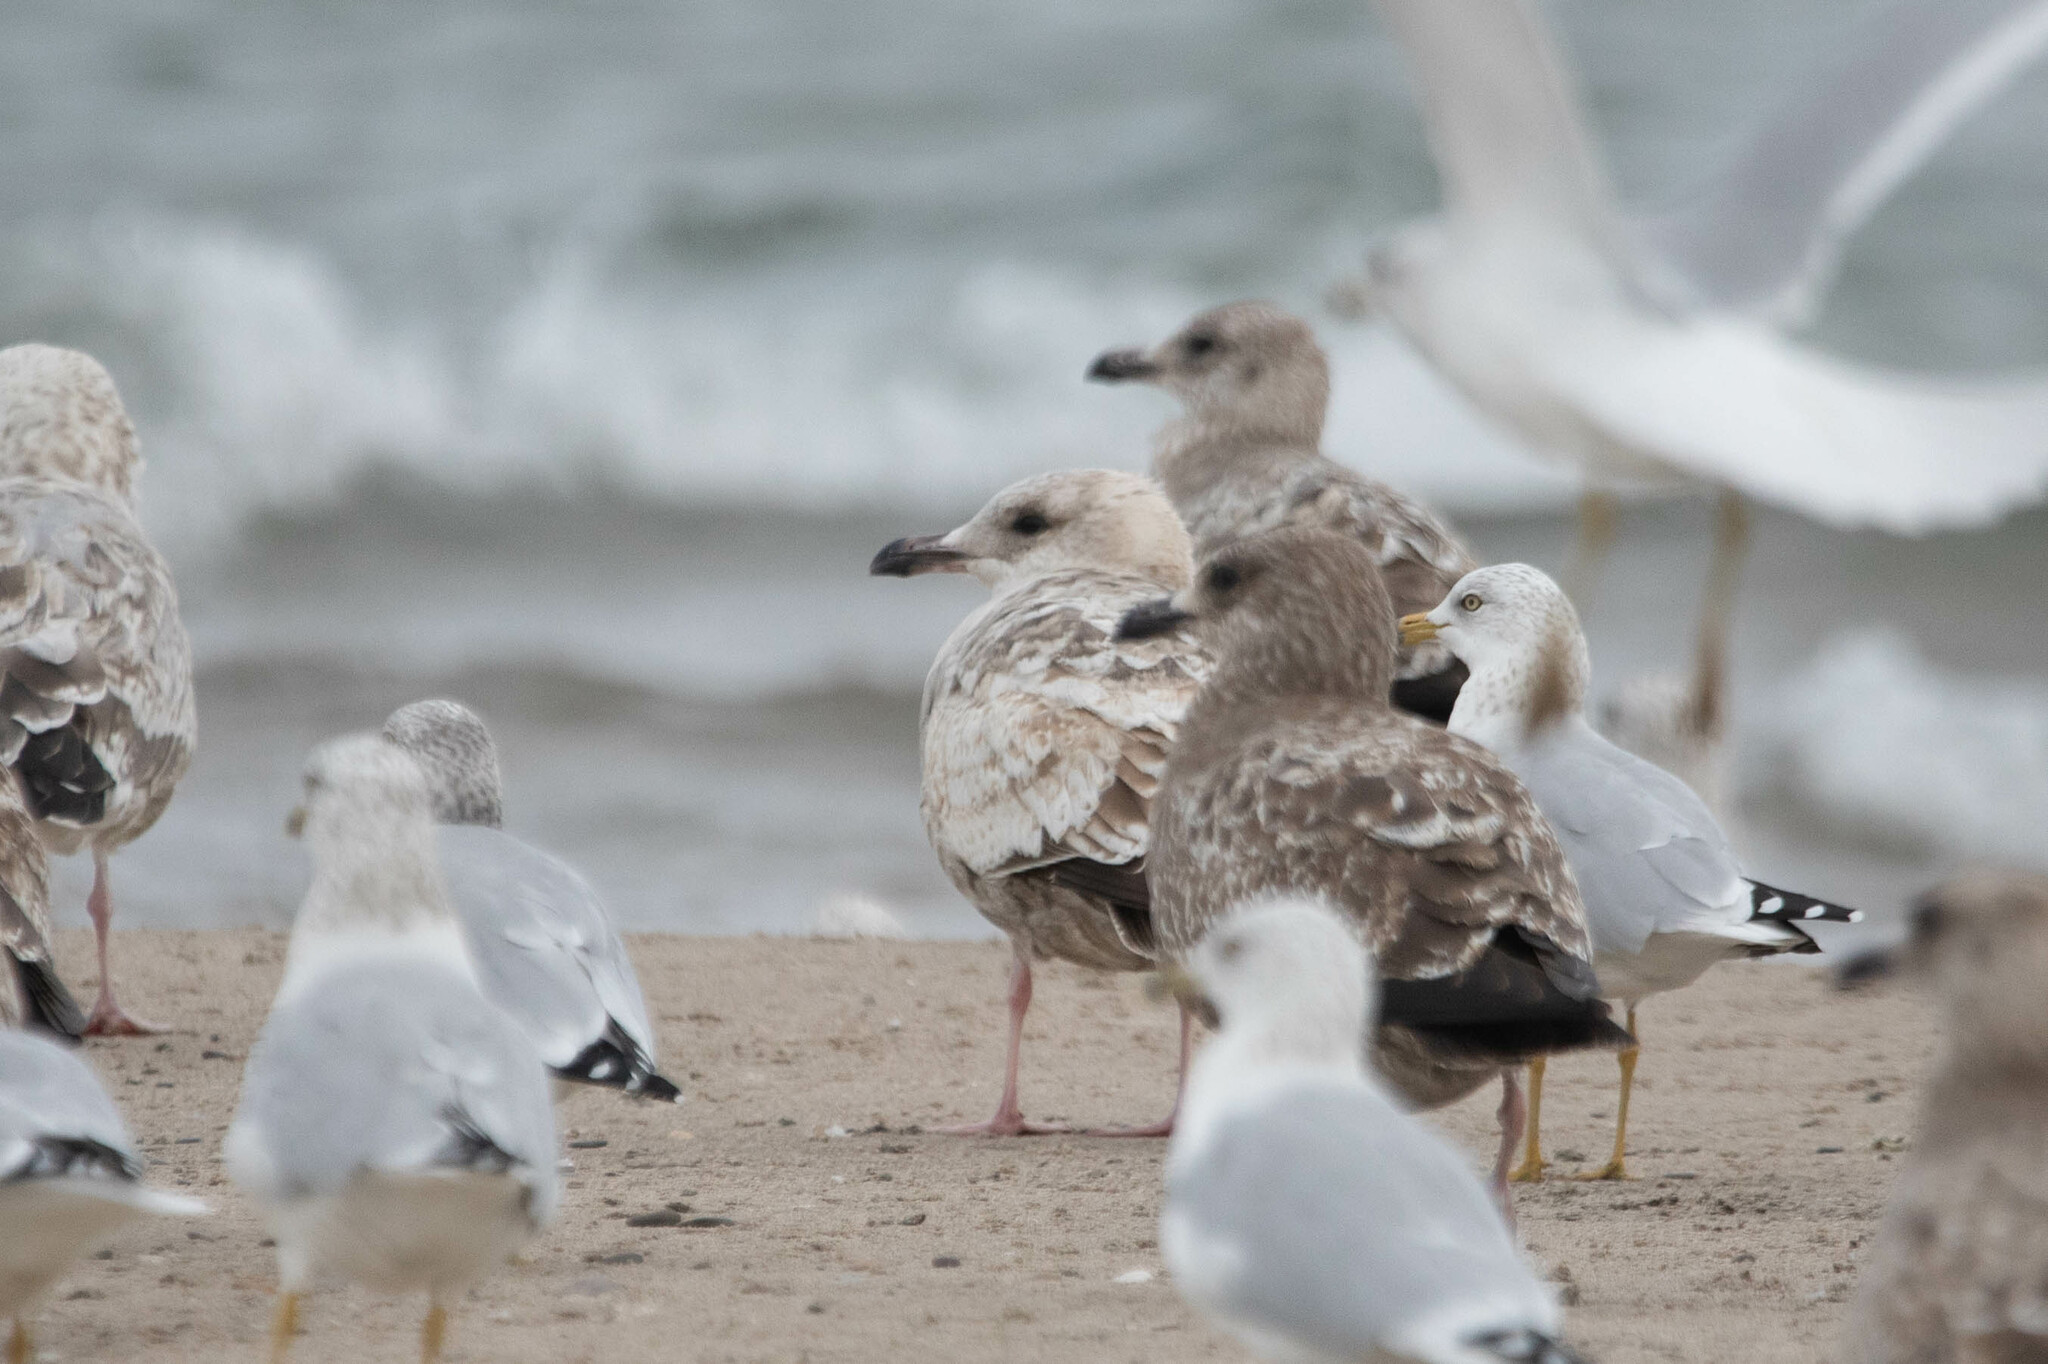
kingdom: Animalia
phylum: Chordata
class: Aves
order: Charadriiformes
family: Laridae
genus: Larus
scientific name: Larus argentatus
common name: Herring gull
